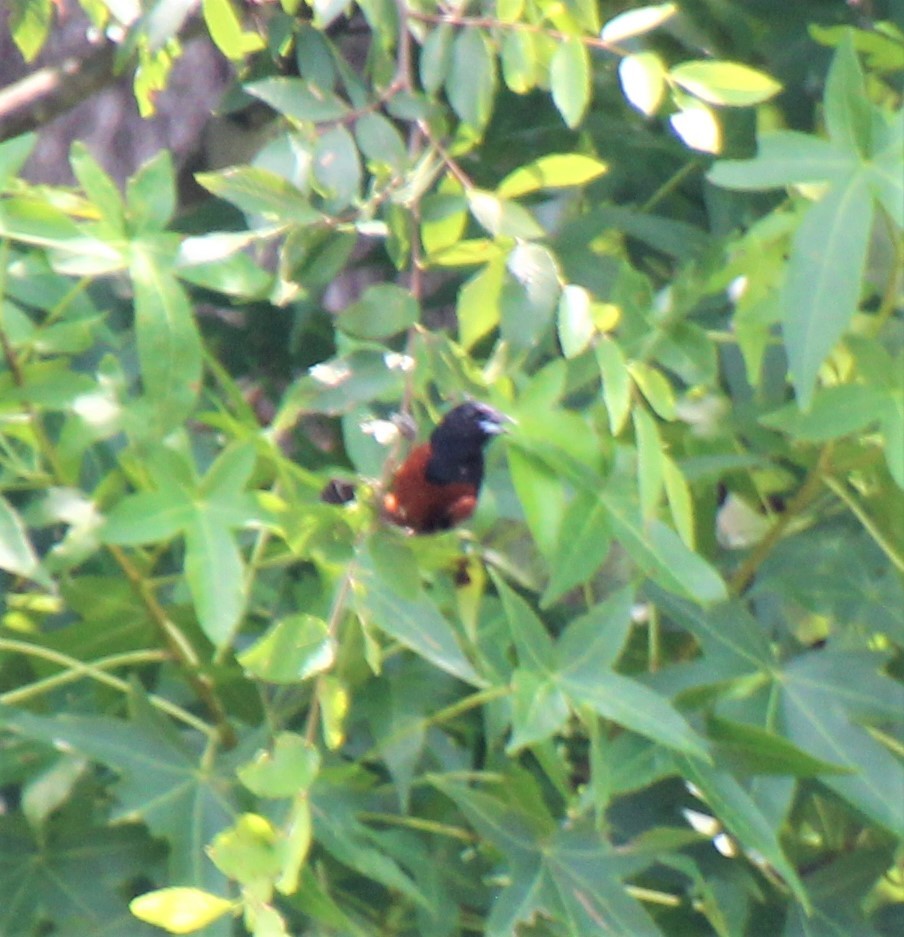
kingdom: Animalia
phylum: Chordata
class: Aves
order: Passeriformes
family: Icteridae
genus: Icterus
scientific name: Icterus spurius
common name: Orchard oriole
